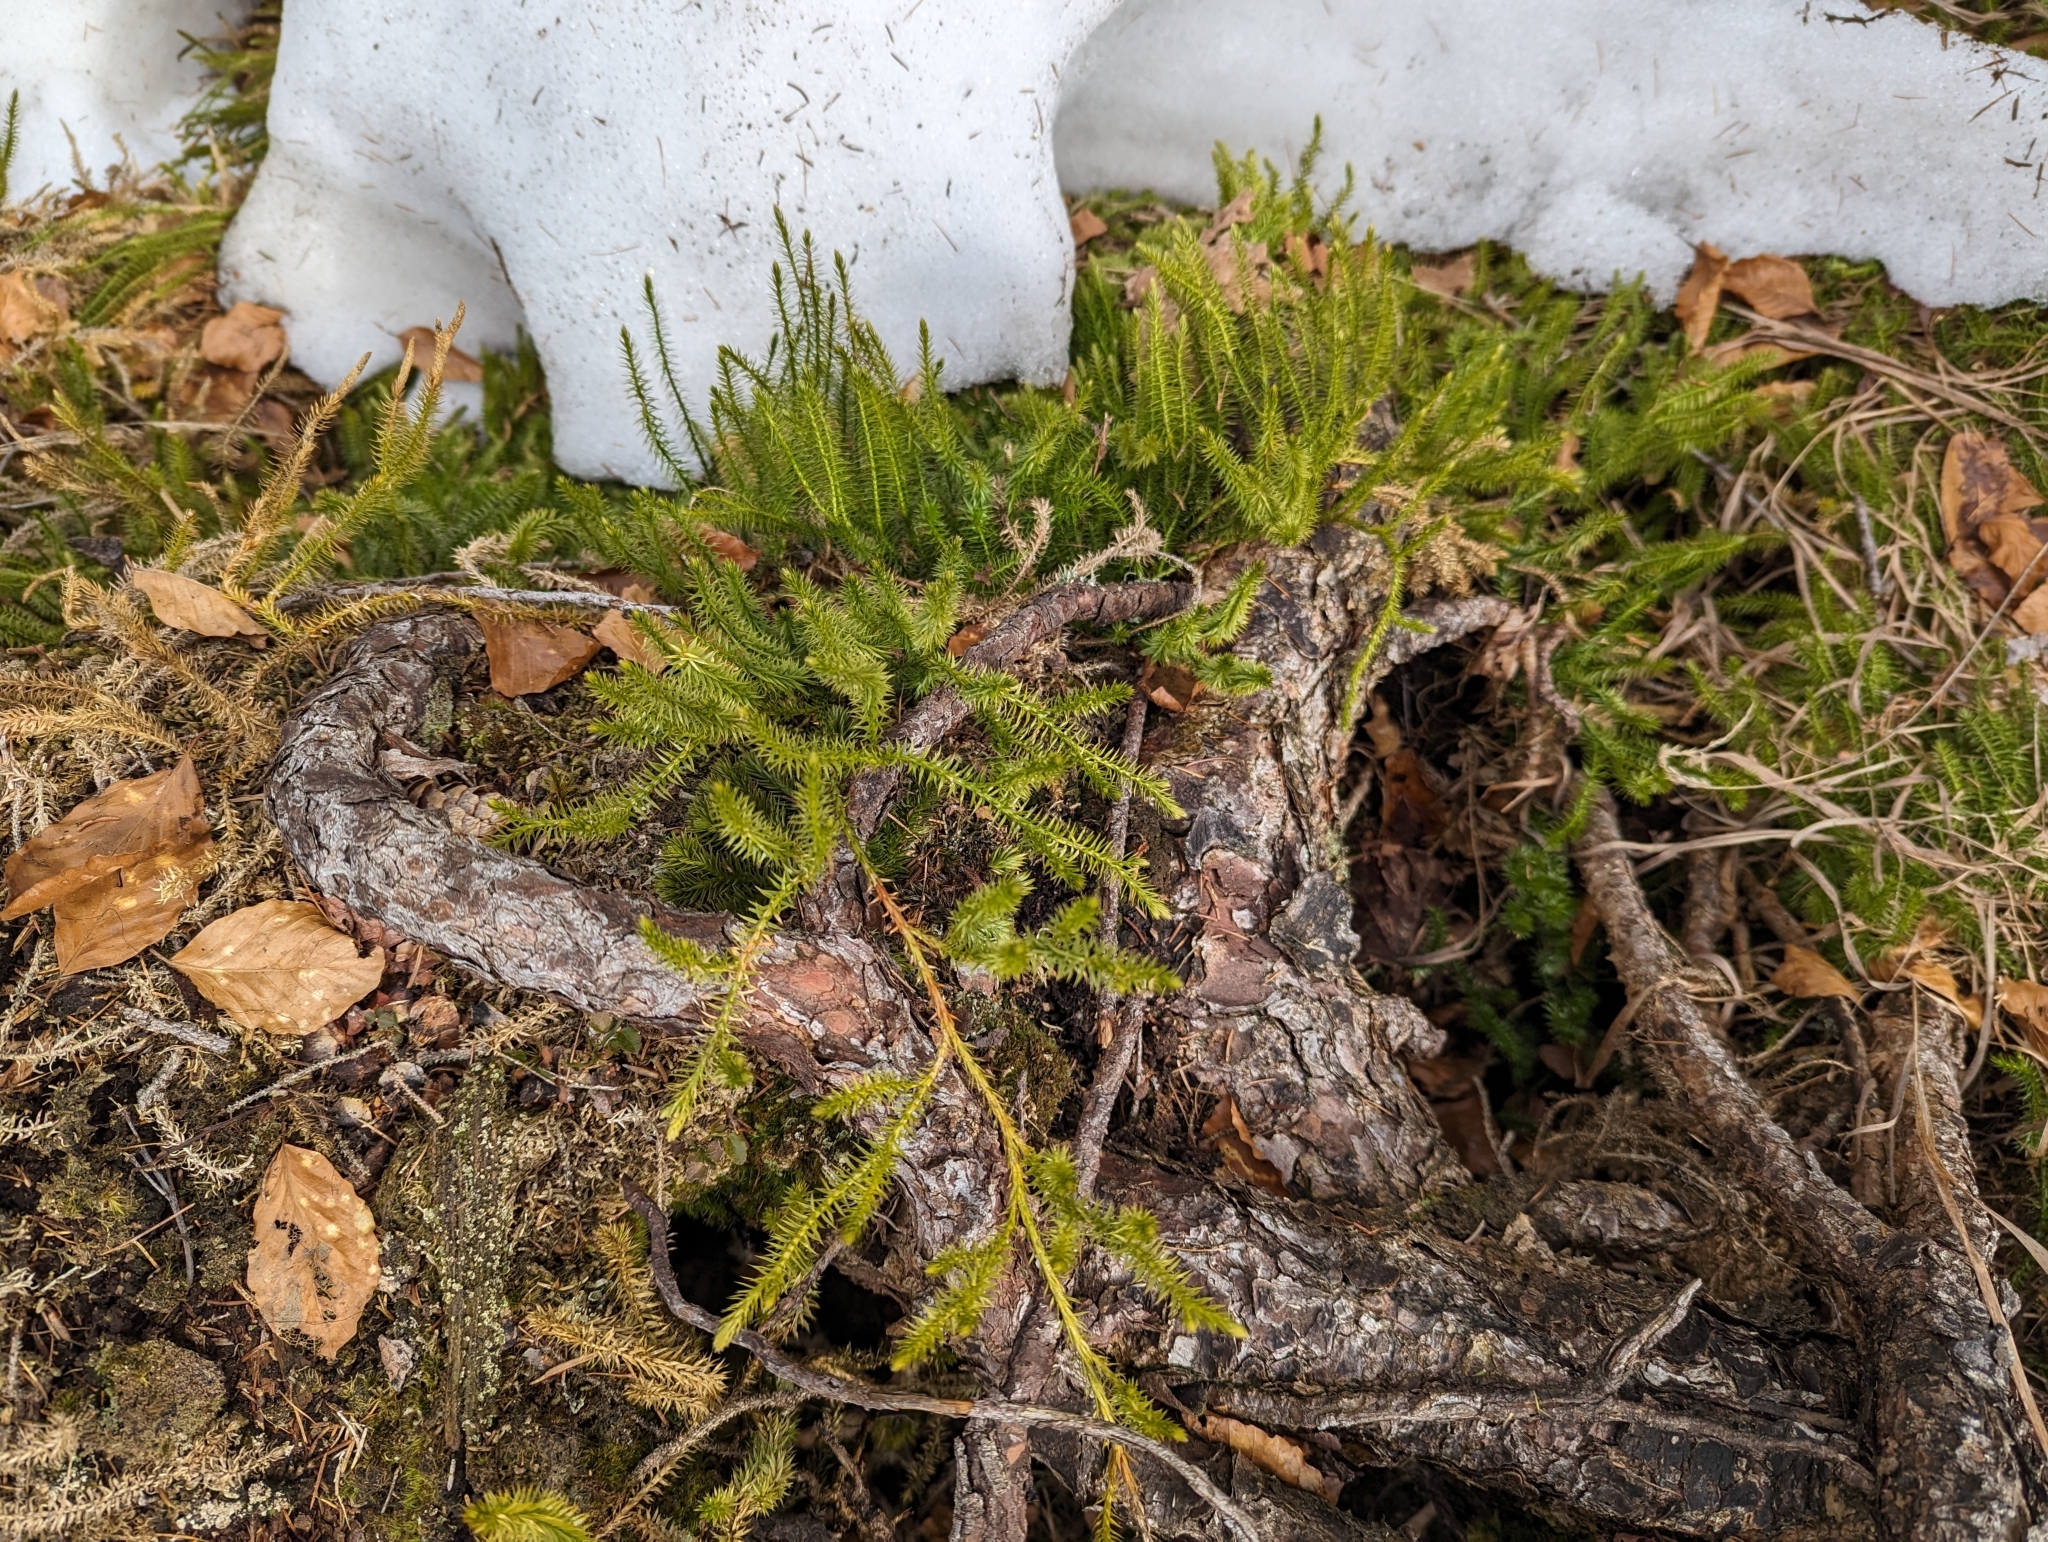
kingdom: Plantae
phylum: Tracheophyta
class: Lycopodiopsida
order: Lycopodiales
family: Lycopodiaceae
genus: Spinulum
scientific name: Spinulum annotinum
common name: Interrupted club-moss
